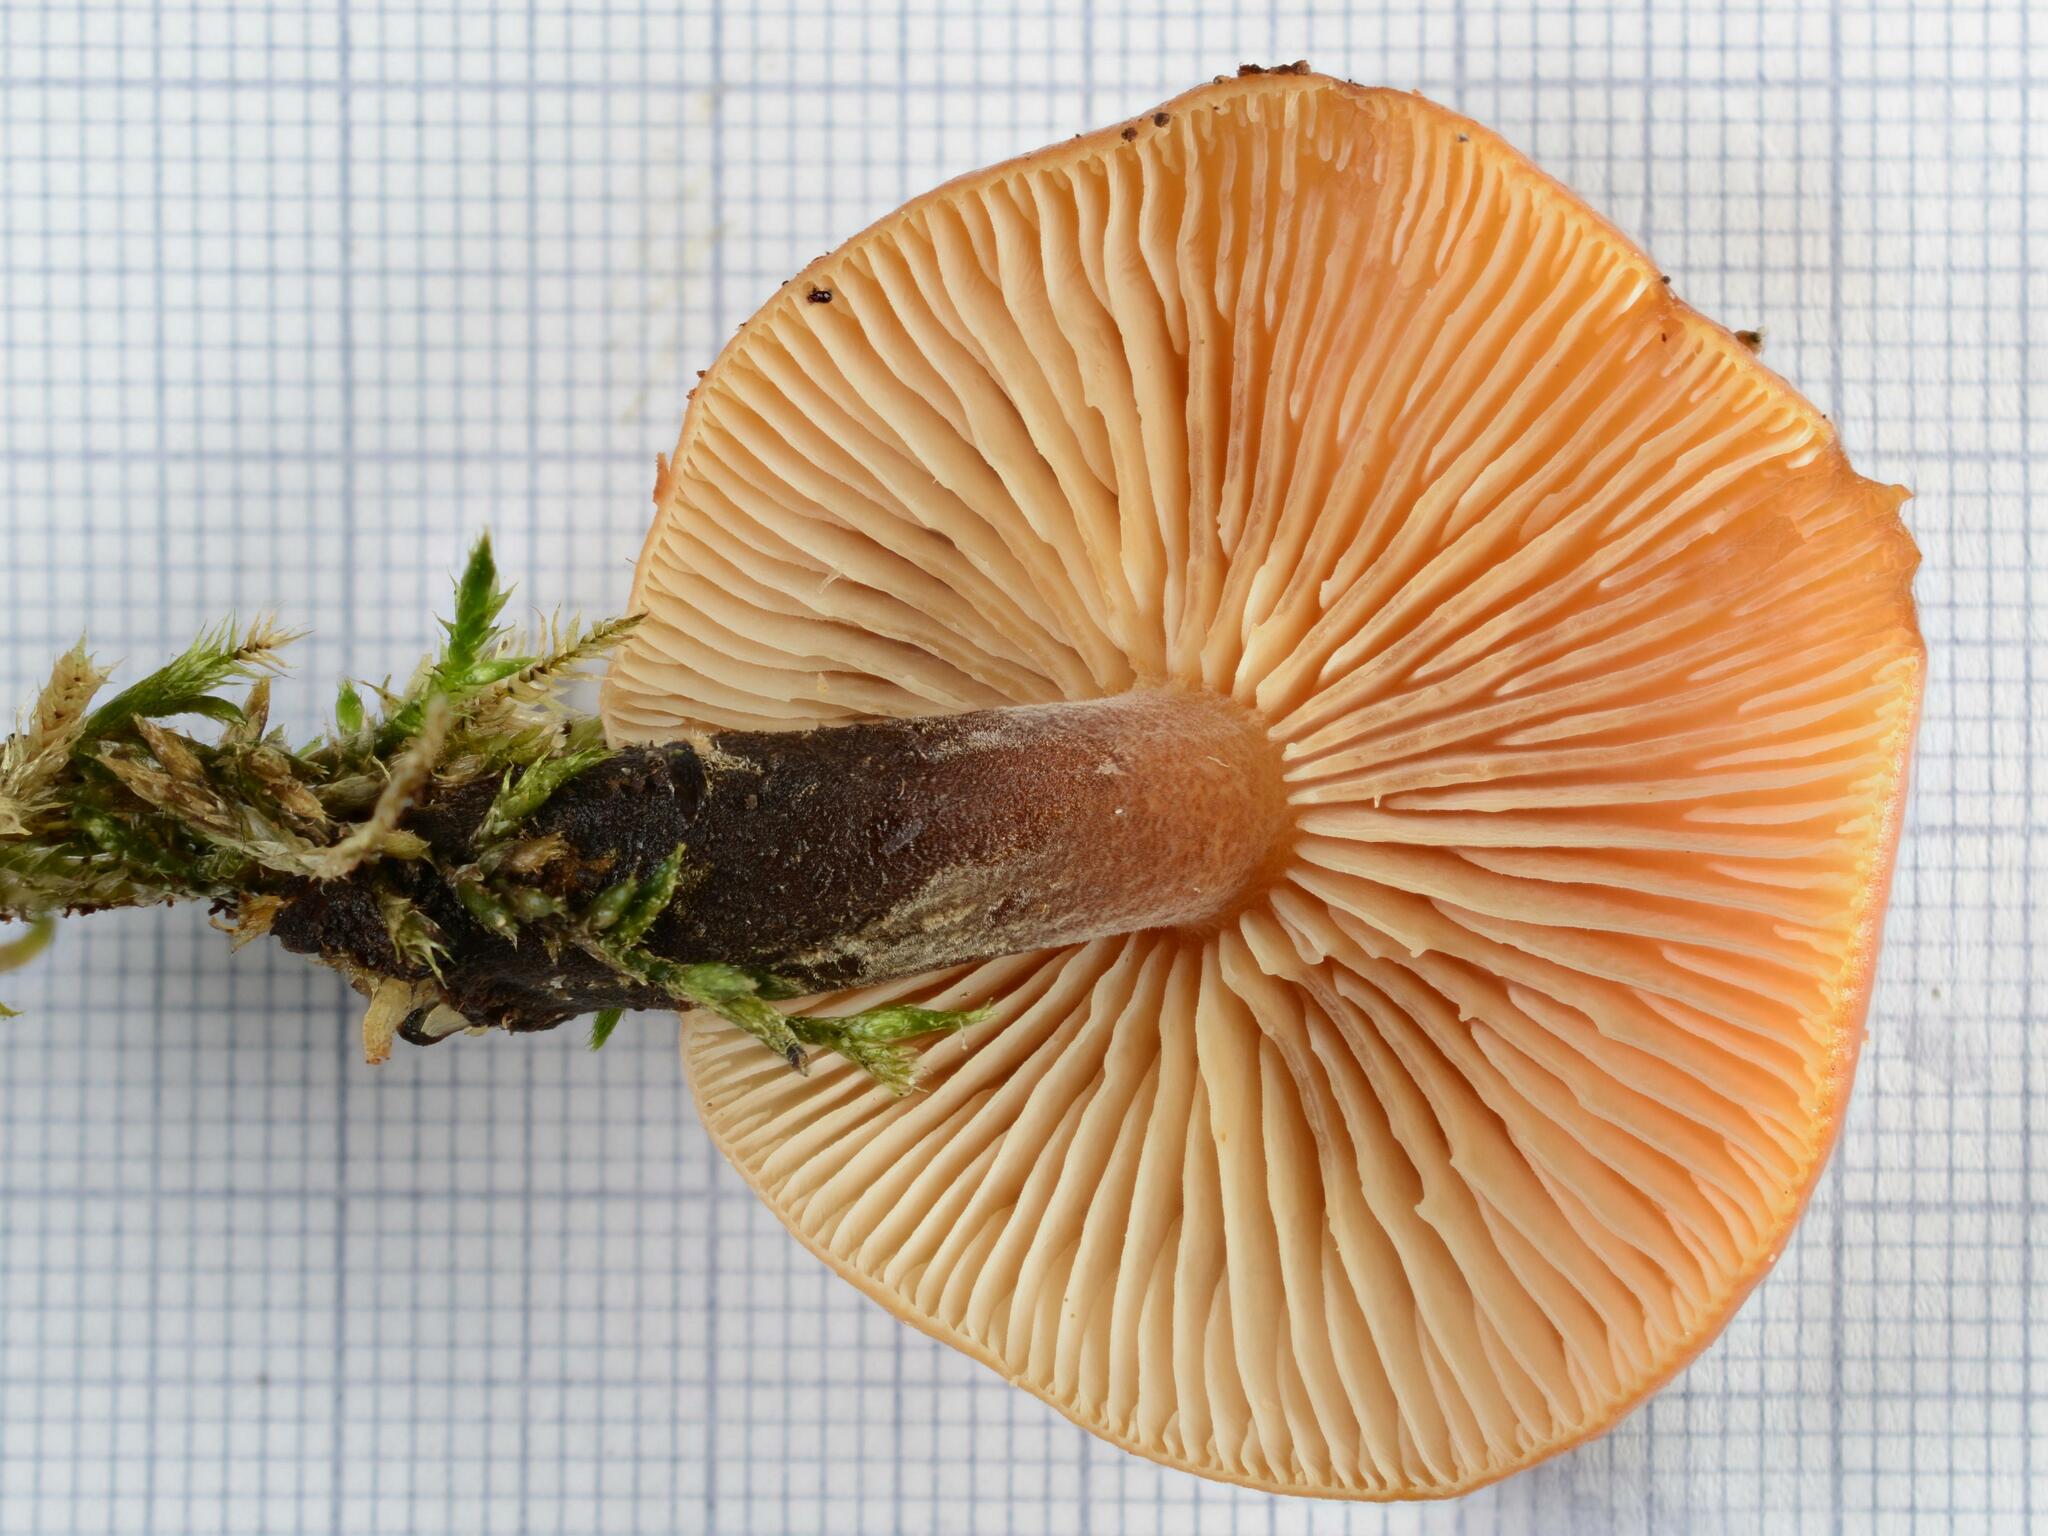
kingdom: Fungi
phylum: Basidiomycota
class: Agaricomycetes
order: Agaricales
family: Physalacriaceae
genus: Flammulina
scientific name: Flammulina velutipes
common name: Velvet shank
